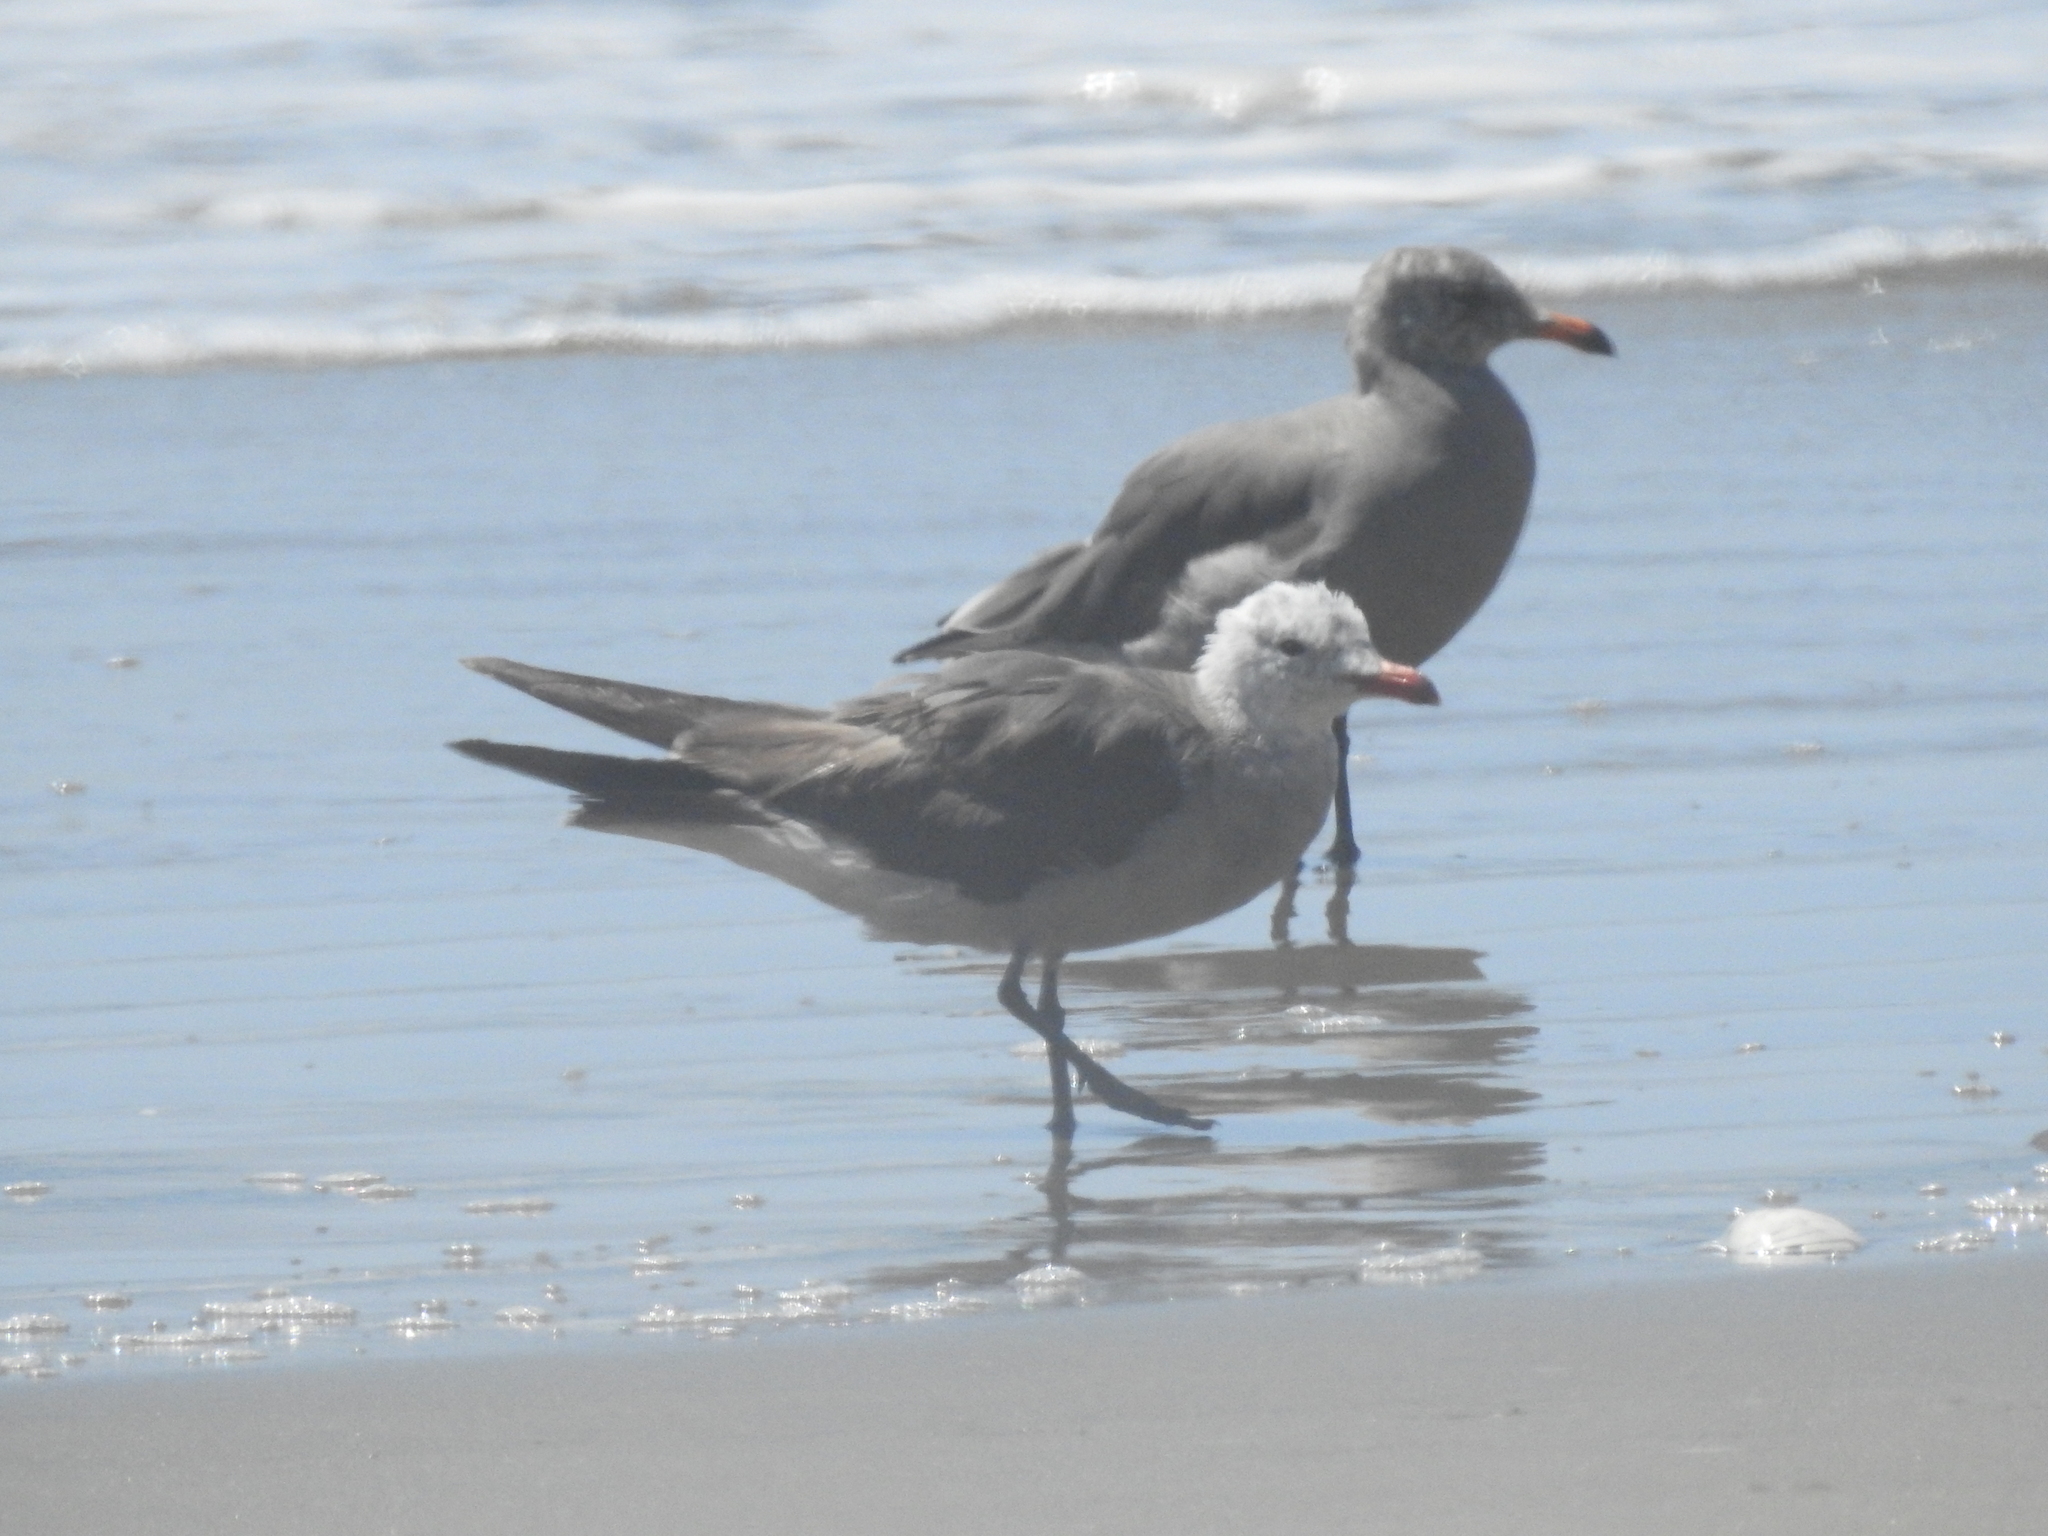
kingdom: Animalia
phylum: Chordata
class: Aves
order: Charadriiformes
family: Laridae
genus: Larus
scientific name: Larus heermanni
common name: Heermann's gull
